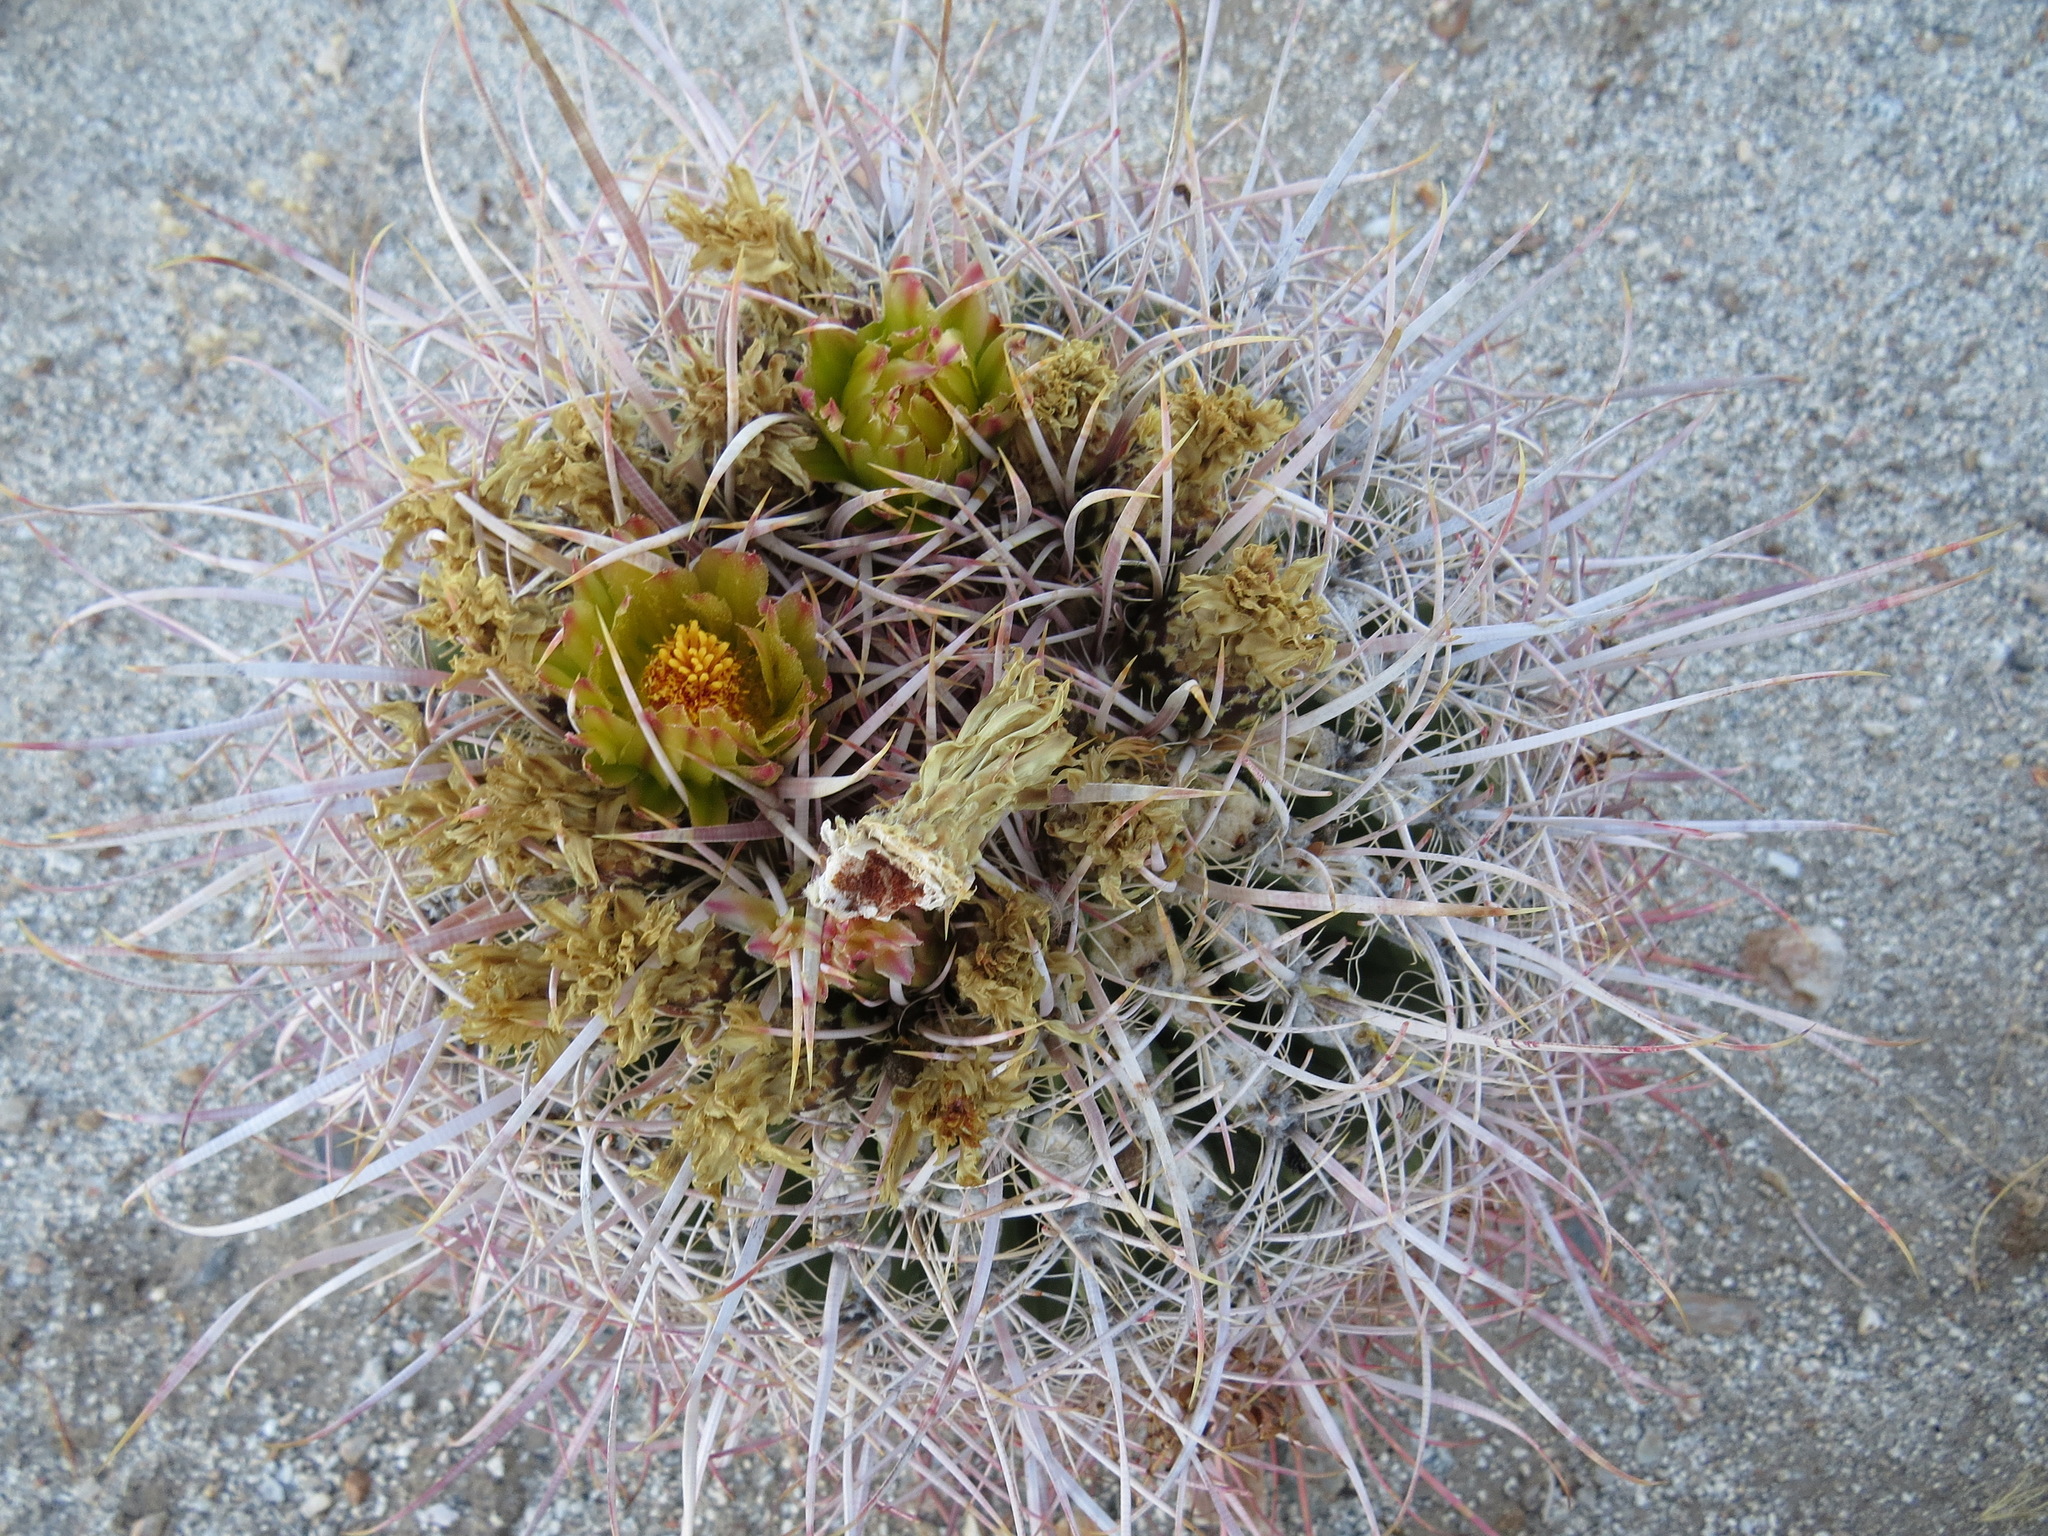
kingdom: Plantae
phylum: Tracheophyta
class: Magnoliopsida
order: Caryophyllales
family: Cactaceae
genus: Ferocactus
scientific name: Ferocactus cylindraceus
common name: California barrel cactus
